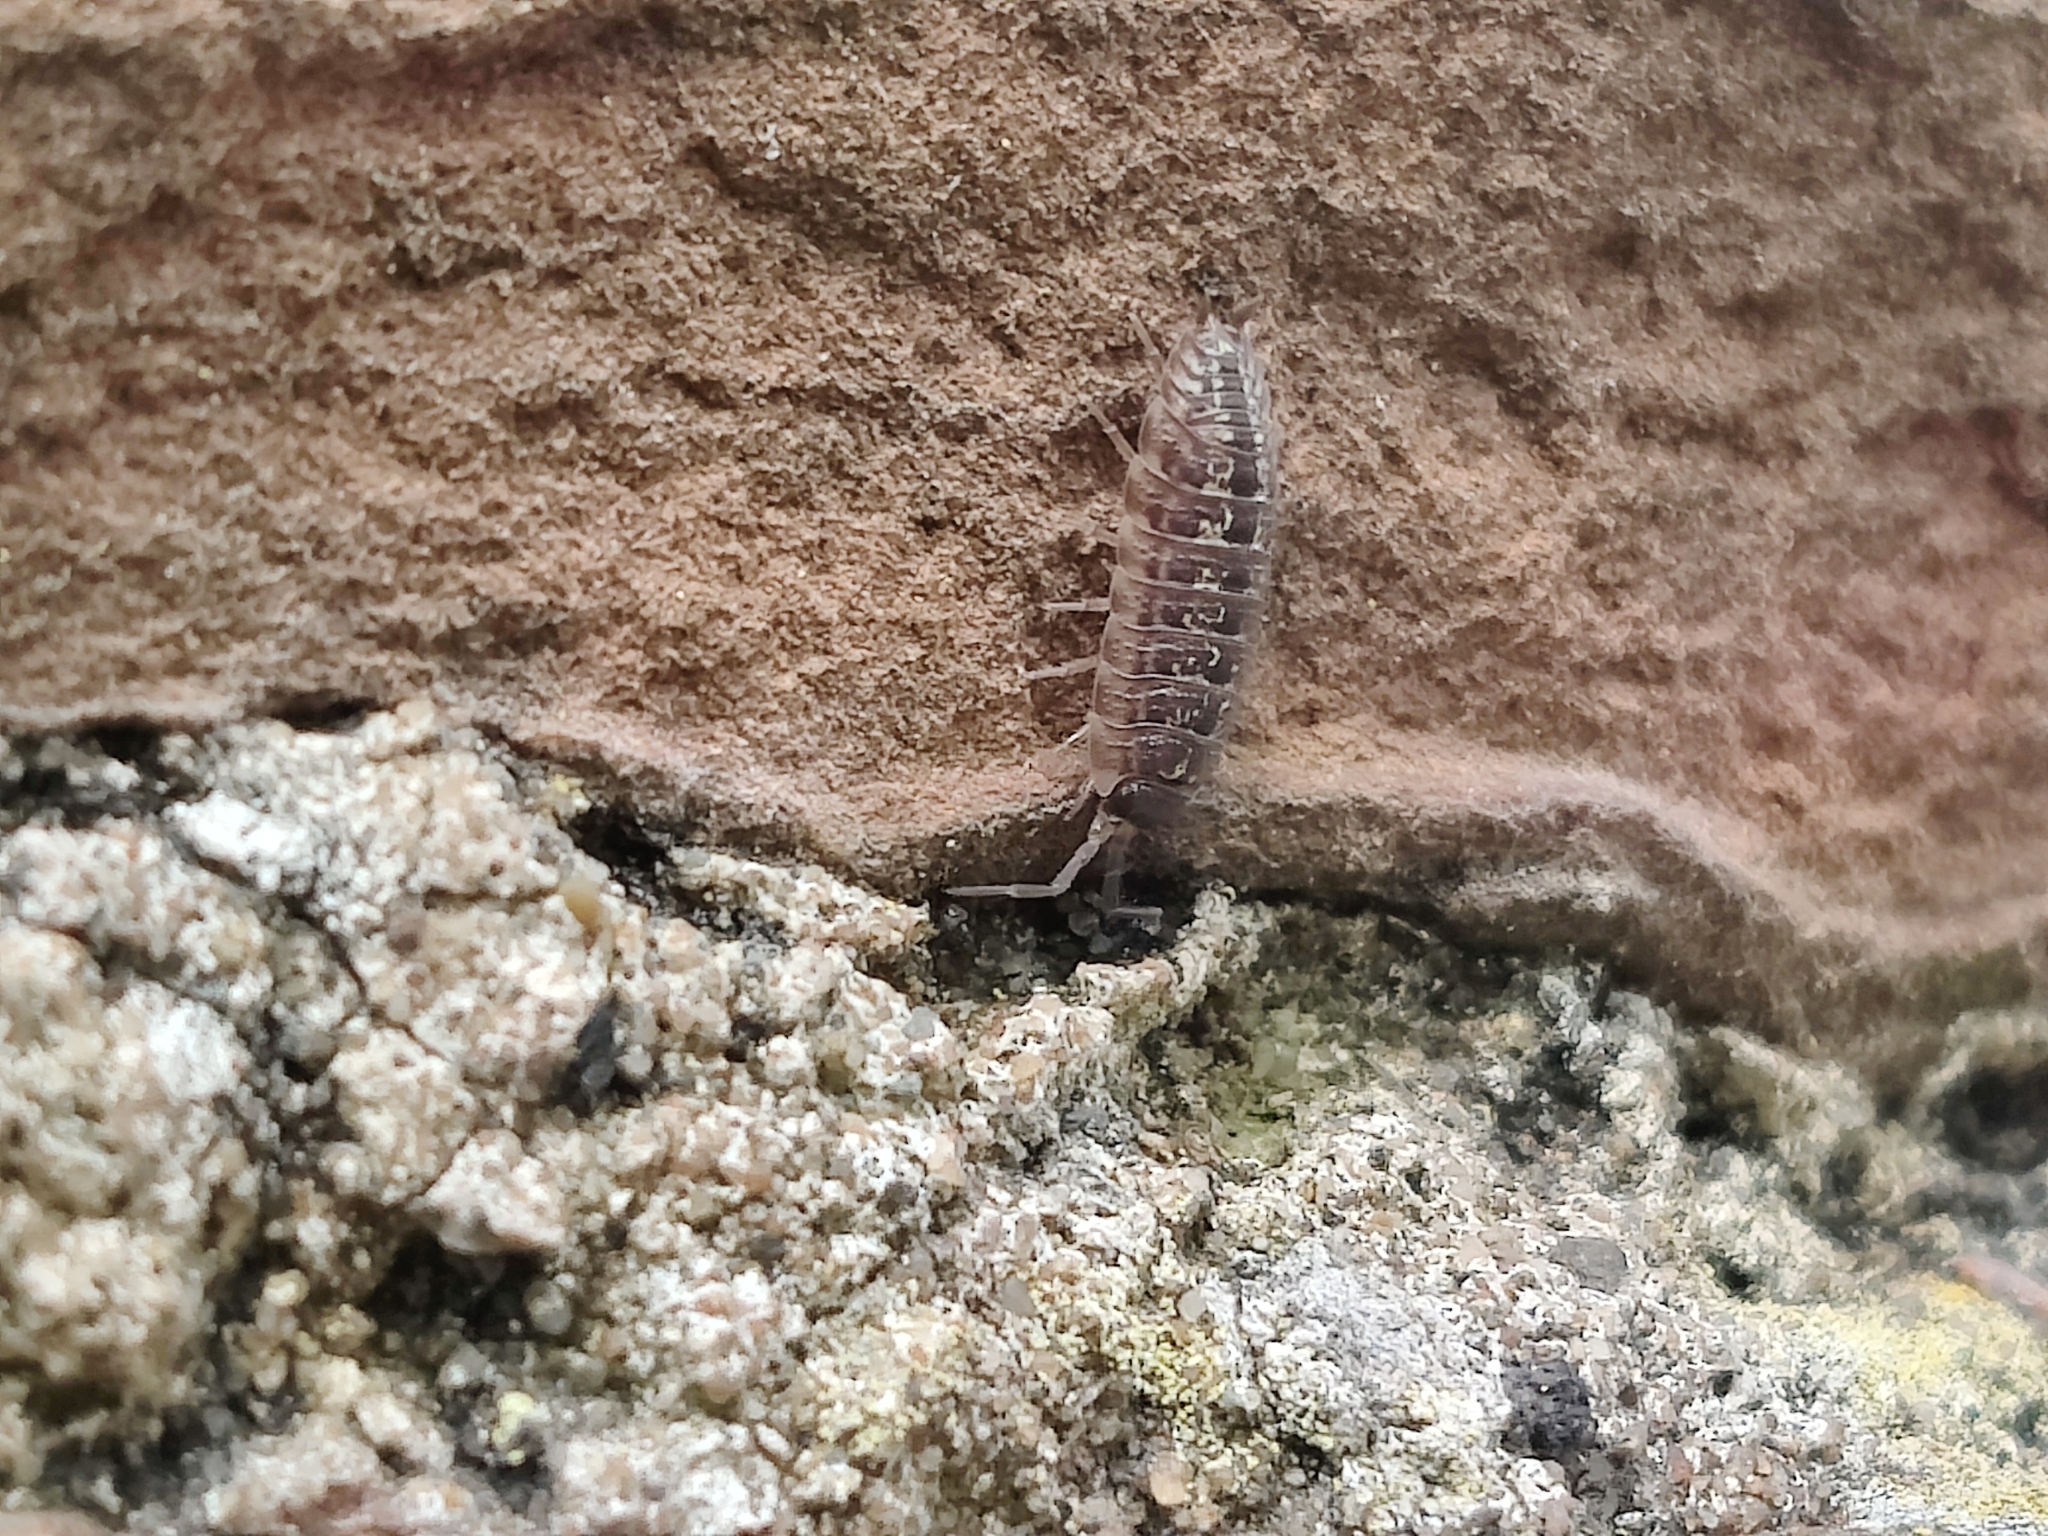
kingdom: Animalia
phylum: Arthropoda
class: Malacostraca
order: Isopoda
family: Porcellionidae
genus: Porcellio
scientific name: Porcellio spinicornis
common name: Painted woodlouse
